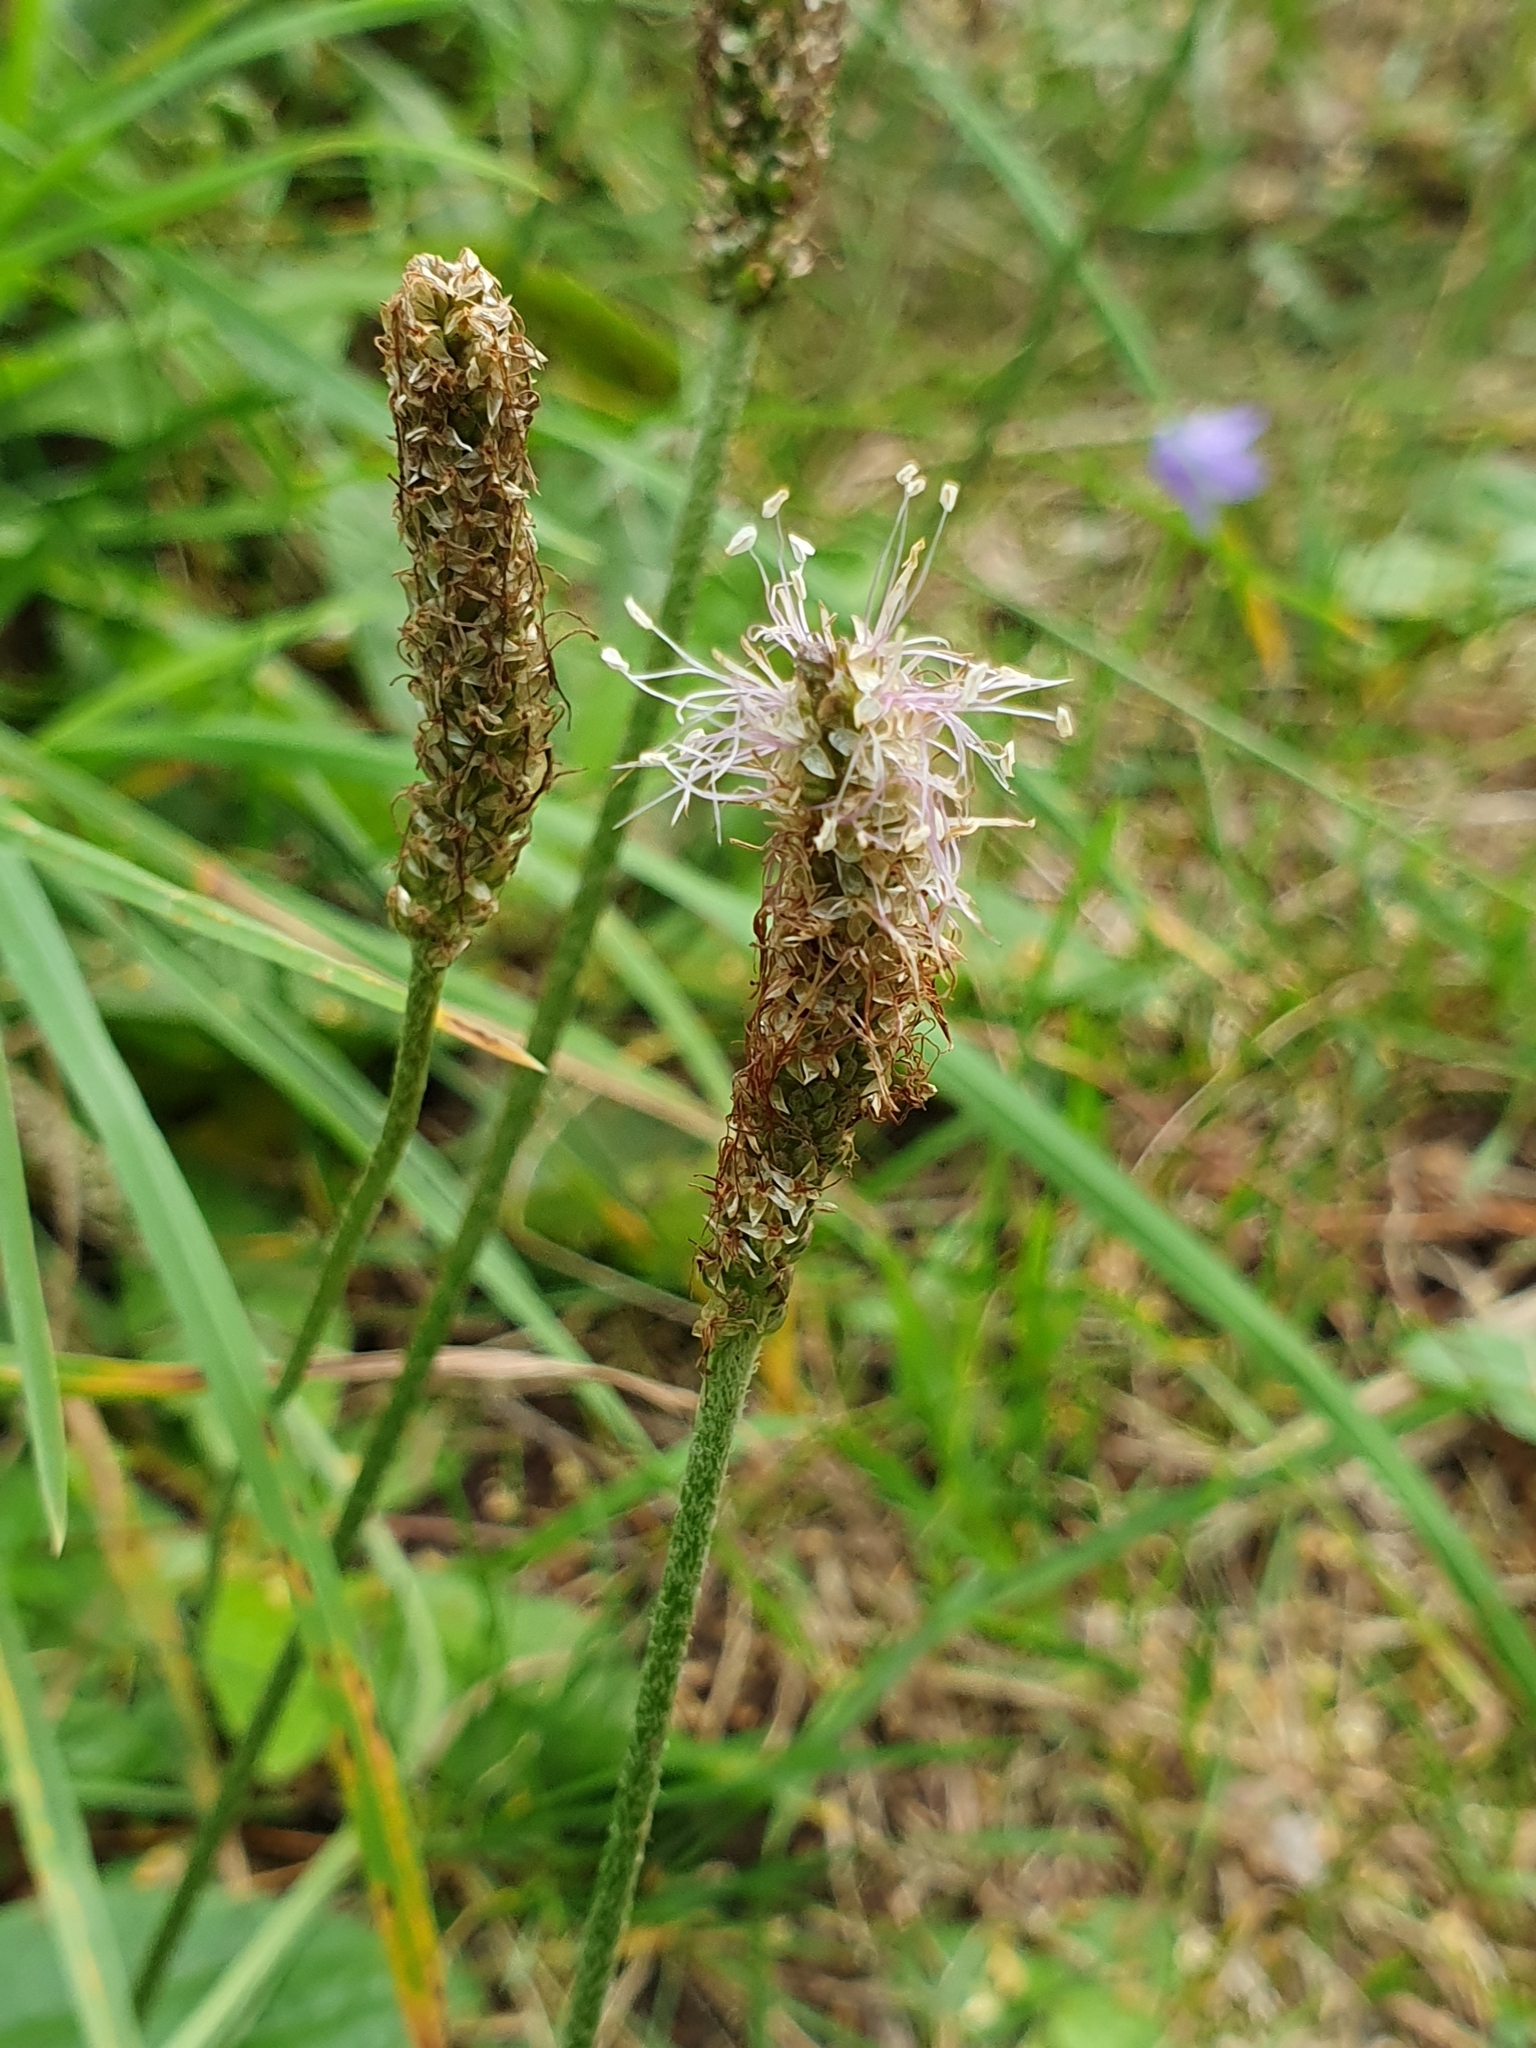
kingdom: Plantae
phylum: Tracheophyta
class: Magnoliopsida
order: Lamiales
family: Plantaginaceae
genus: Plantago
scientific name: Plantago media
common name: Hoary plantain
